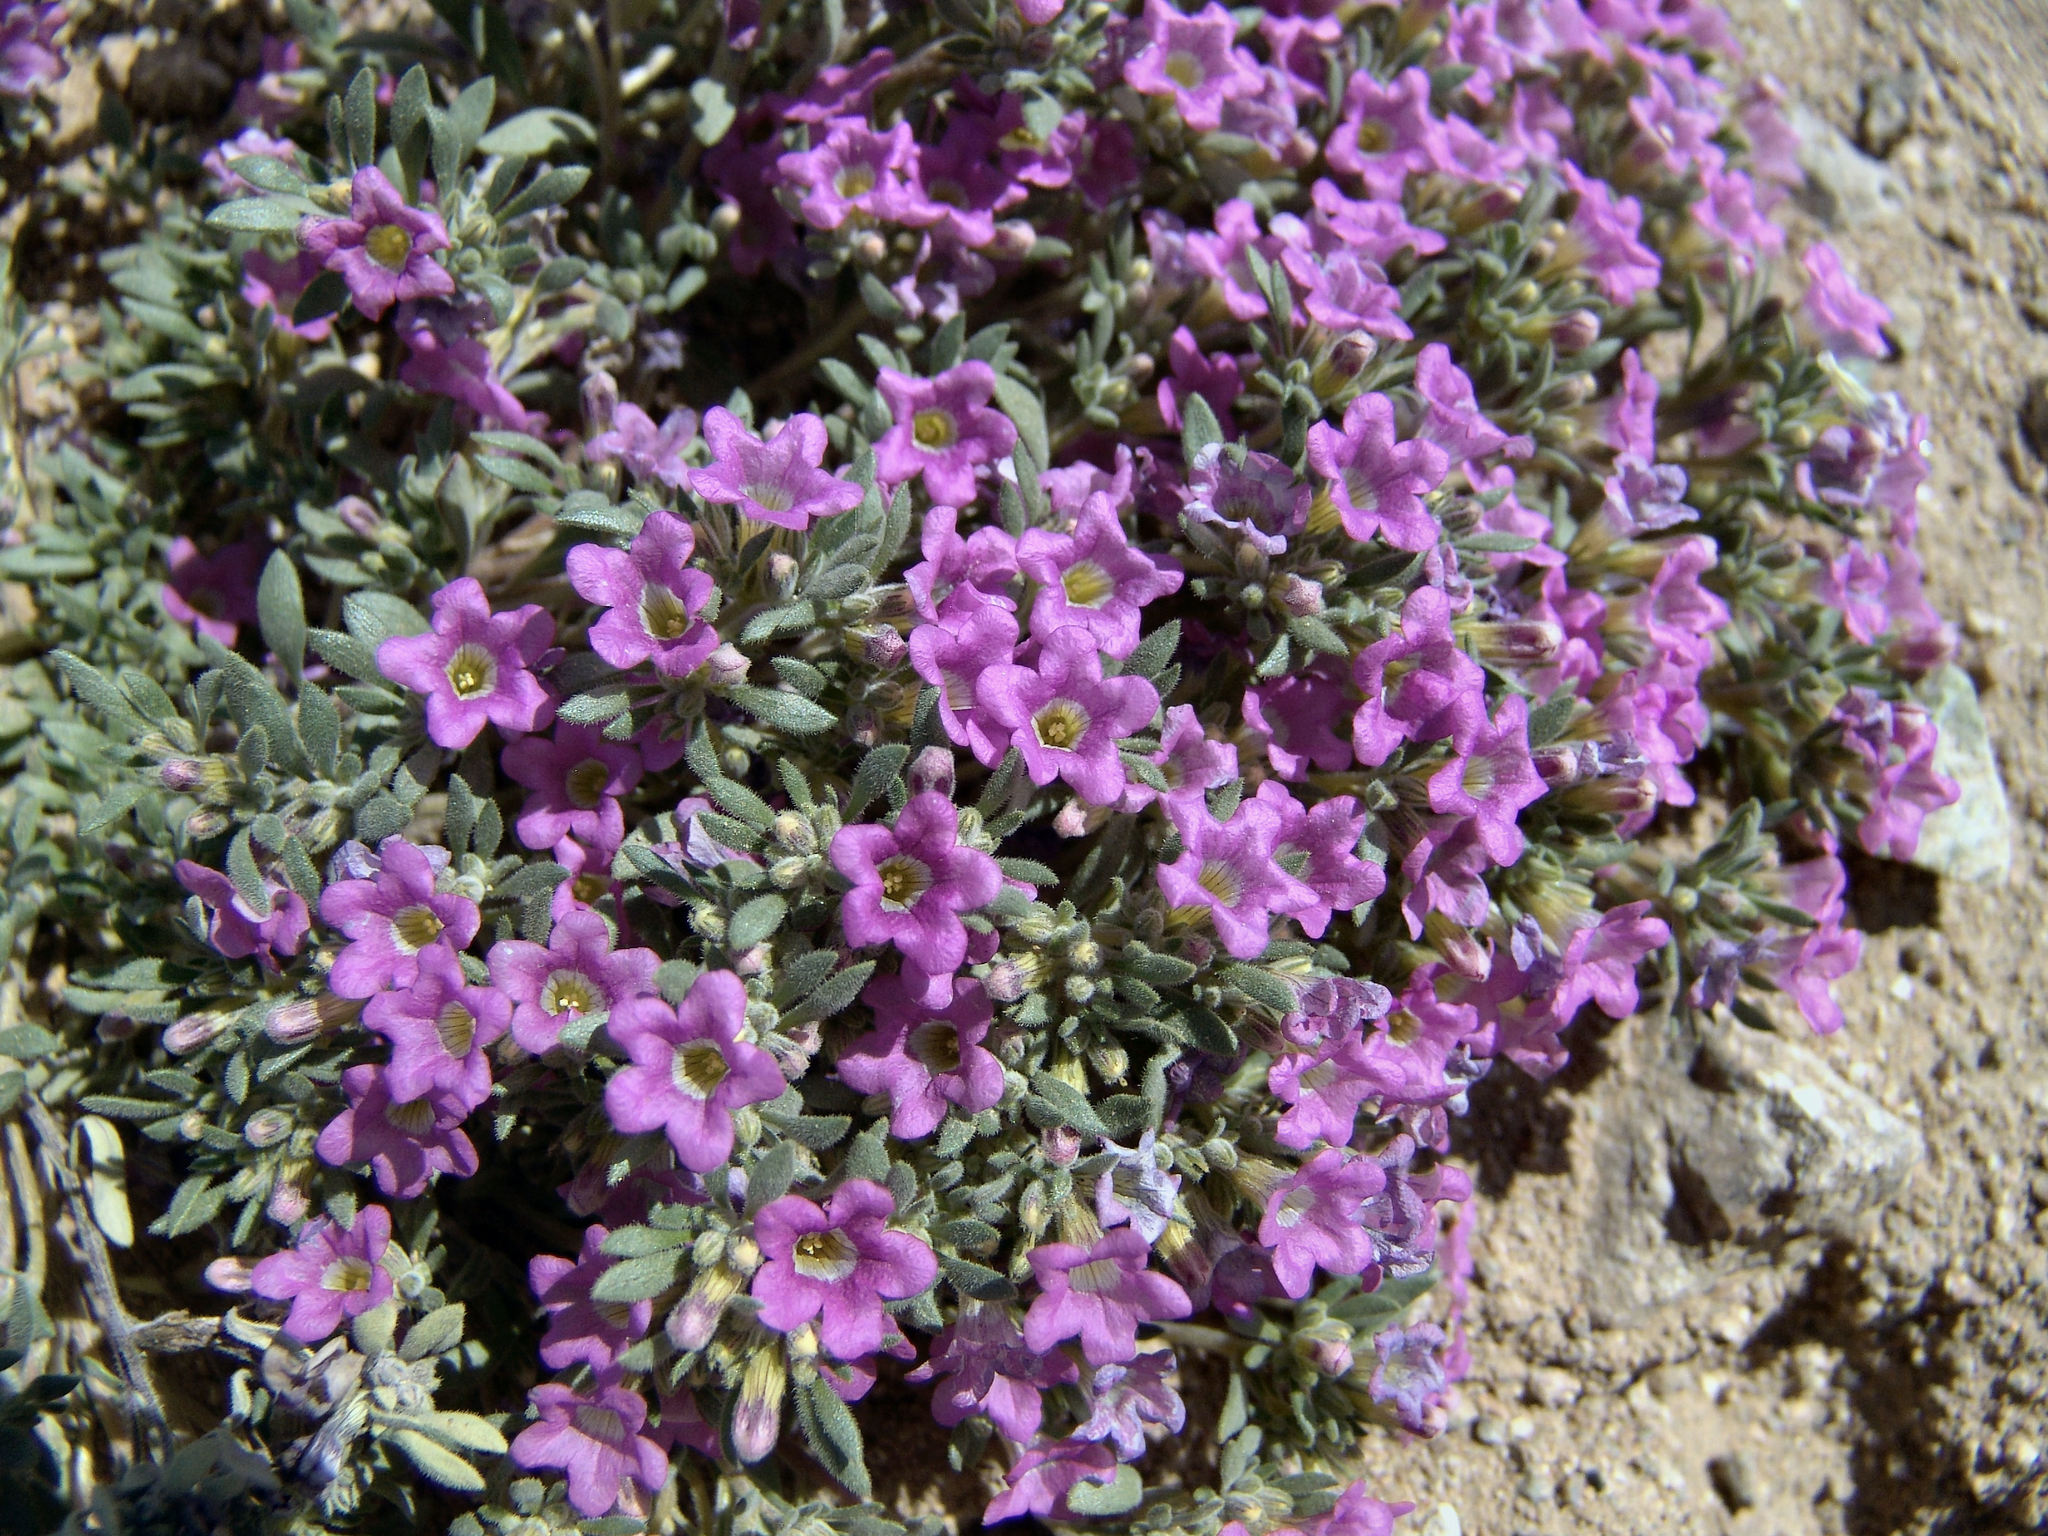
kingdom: Plantae
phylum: Tracheophyta
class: Magnoliopsida
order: Boraginales
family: Namaceae
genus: Nama
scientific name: Nama demissa
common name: Leafy nama
